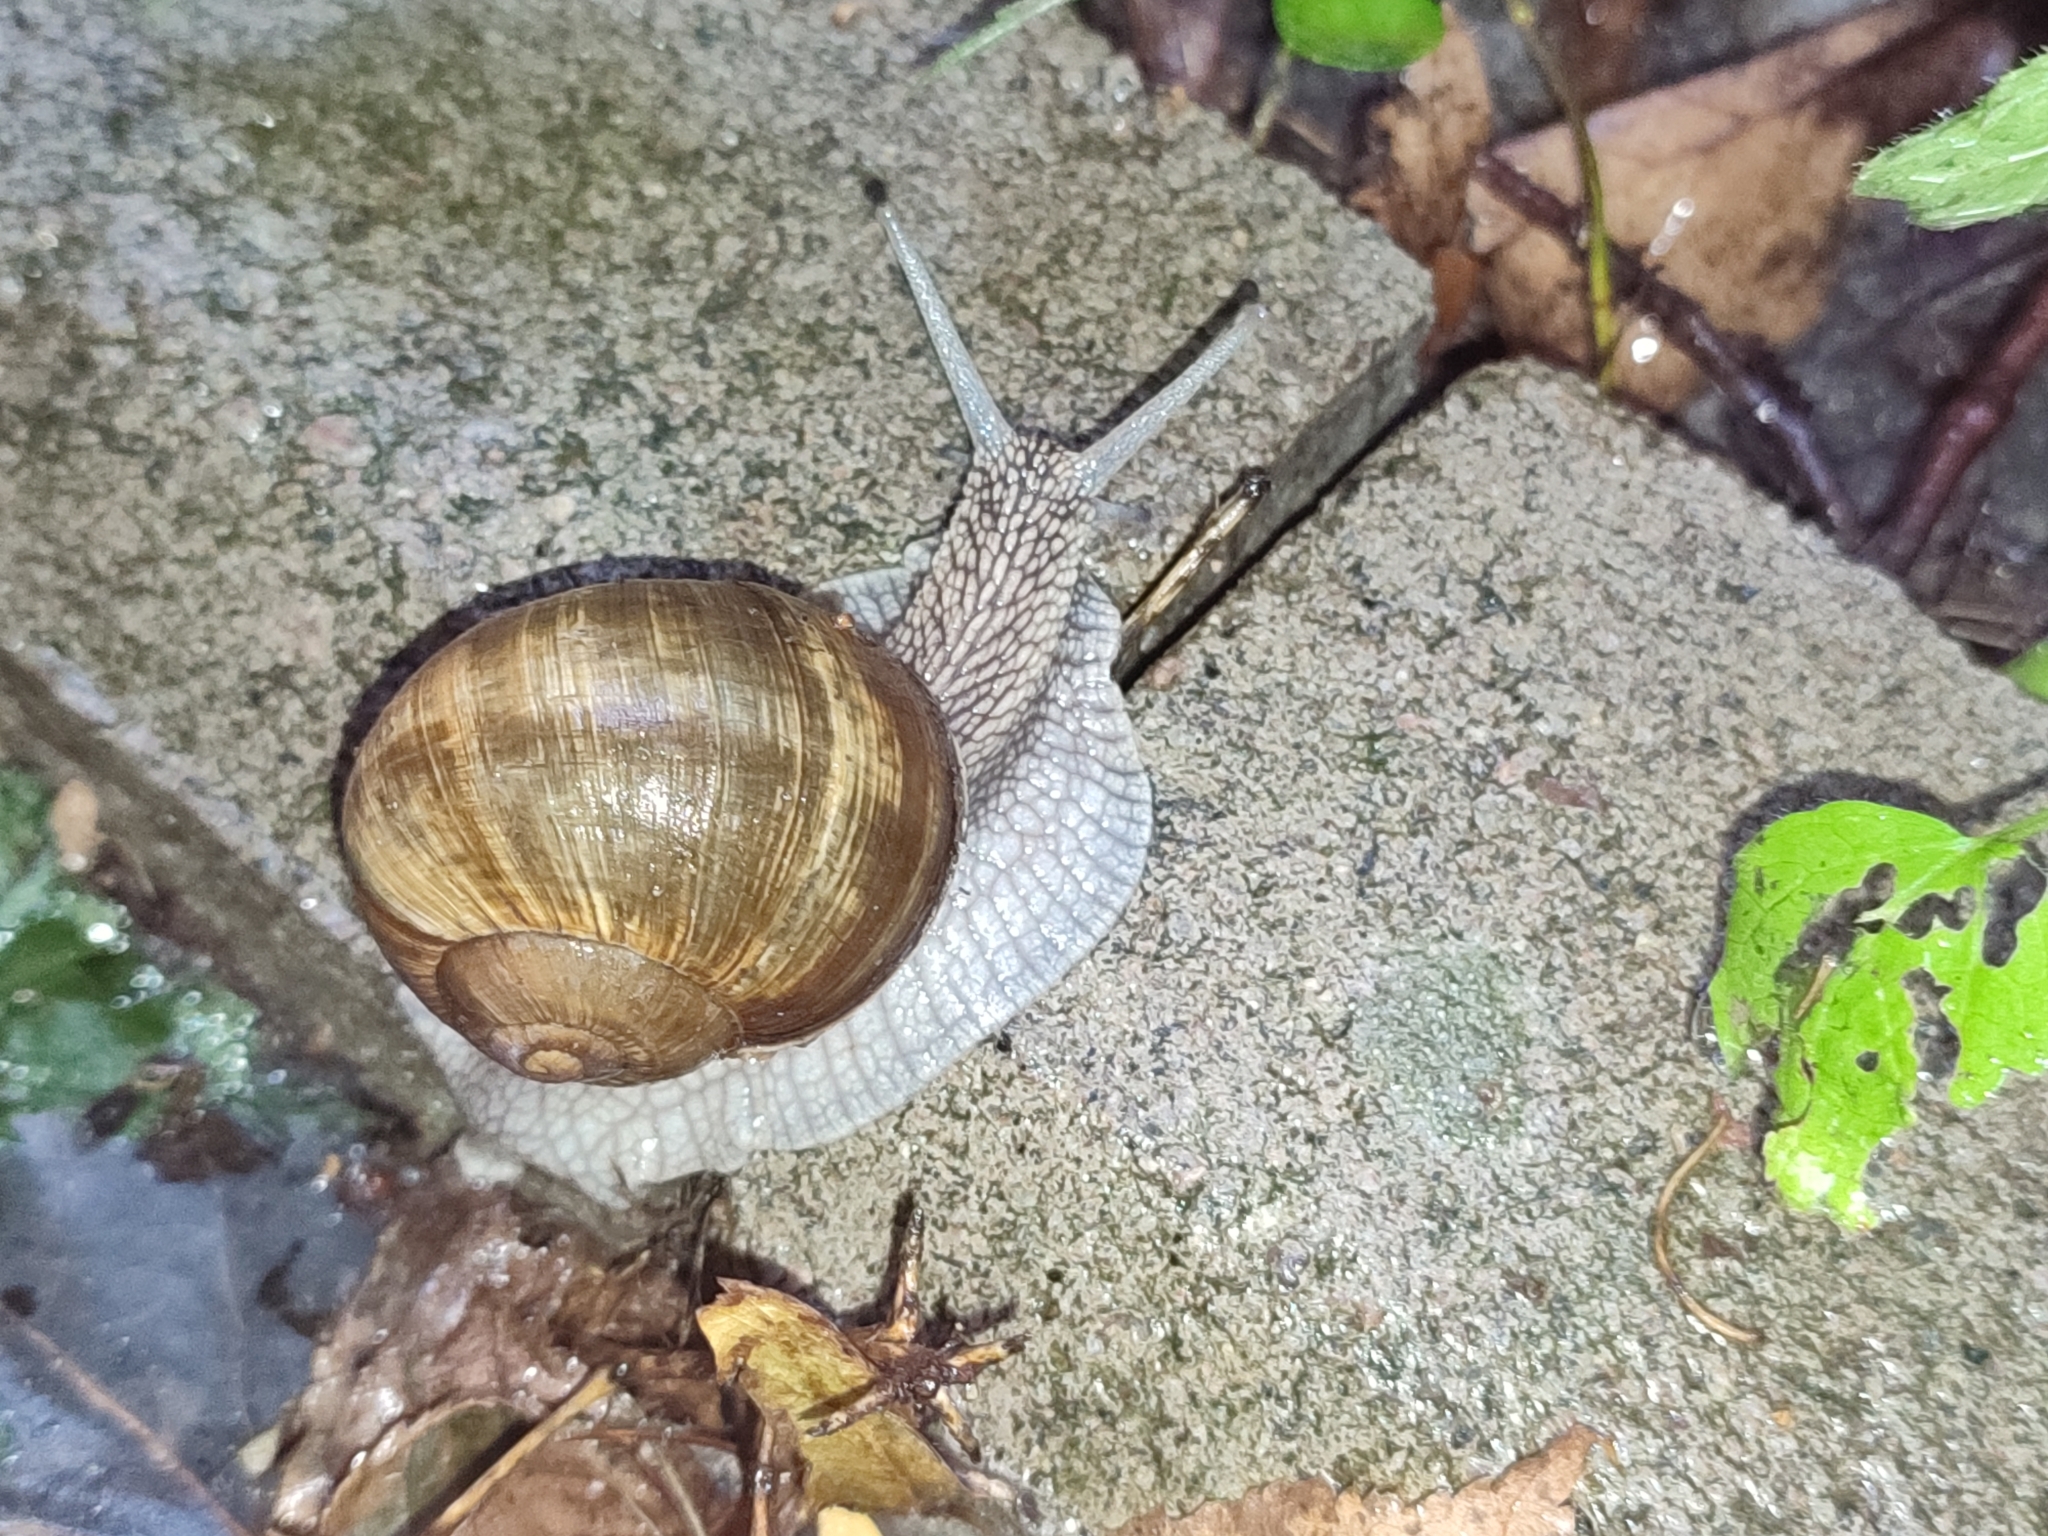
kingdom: Animalia
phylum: Mollusca
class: Gastropoda
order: Stylommatophora
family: Helicidae
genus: Helix
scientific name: Helix pomatia
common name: Roman snail
